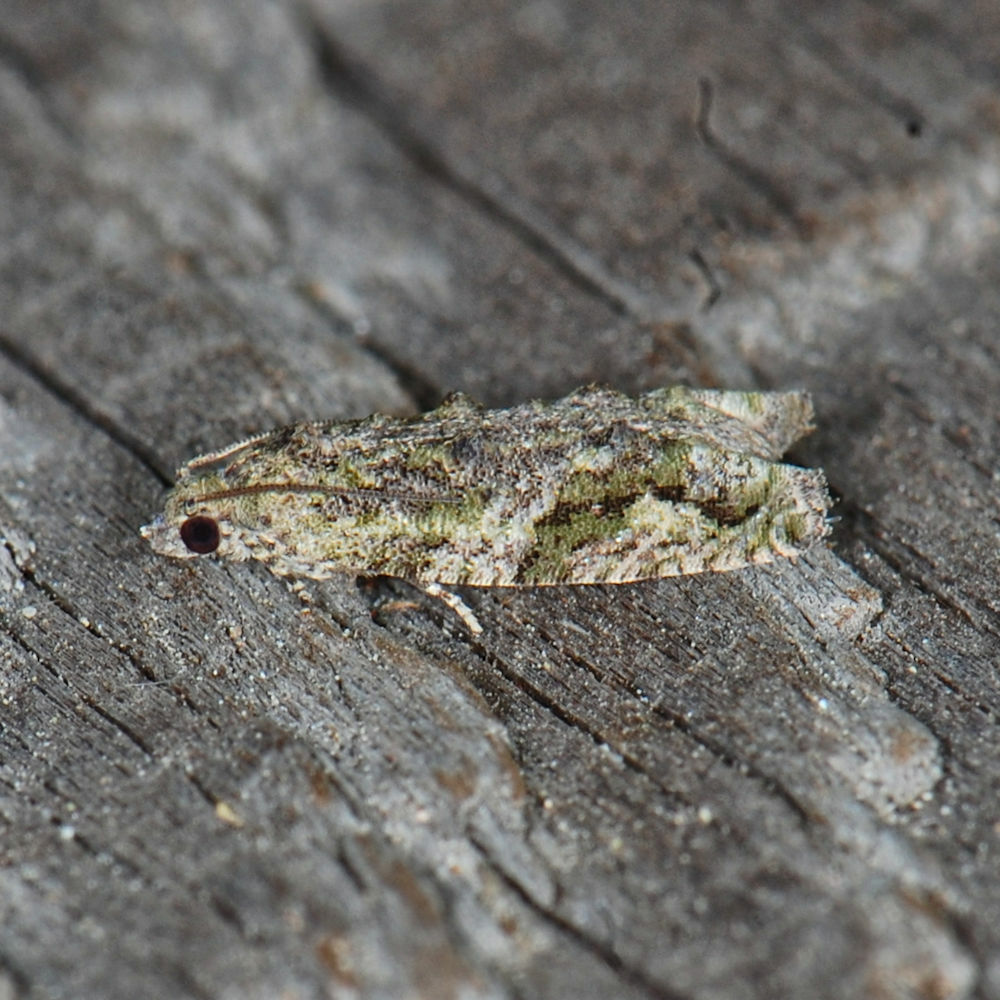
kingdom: Animalia
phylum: Arthropoda
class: Insecta
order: Lepidoptera
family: Tortricidae
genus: Proteoteras
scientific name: Proteoteras aesculana
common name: Maple twig borer moth
